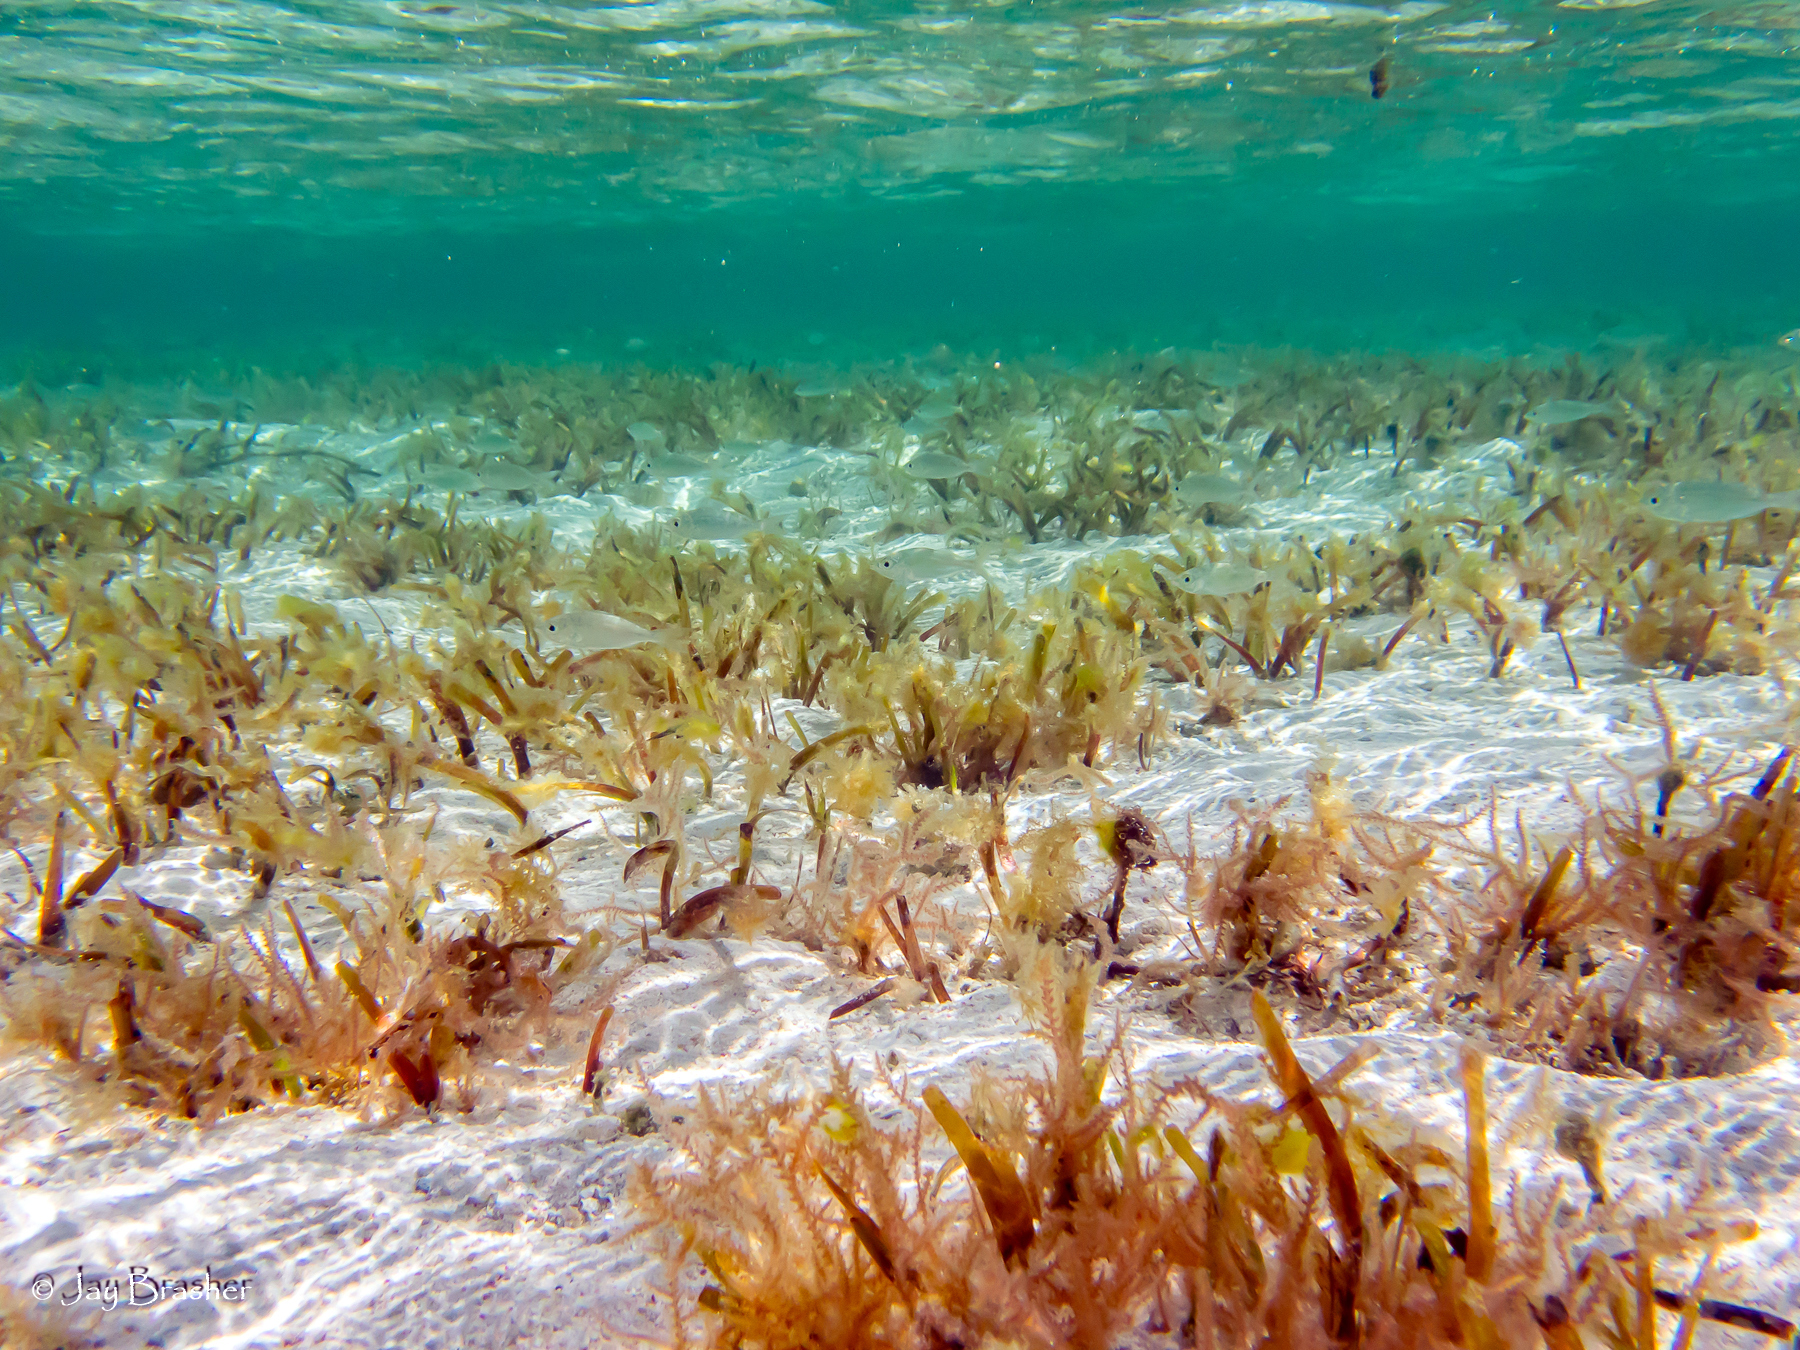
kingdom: Plantae
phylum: Tracheophyta
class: Liliopsida
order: Alismatales
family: Hydrocharitaceae
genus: Thalassia
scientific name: Thalassia testudinum
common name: Species code: tt
